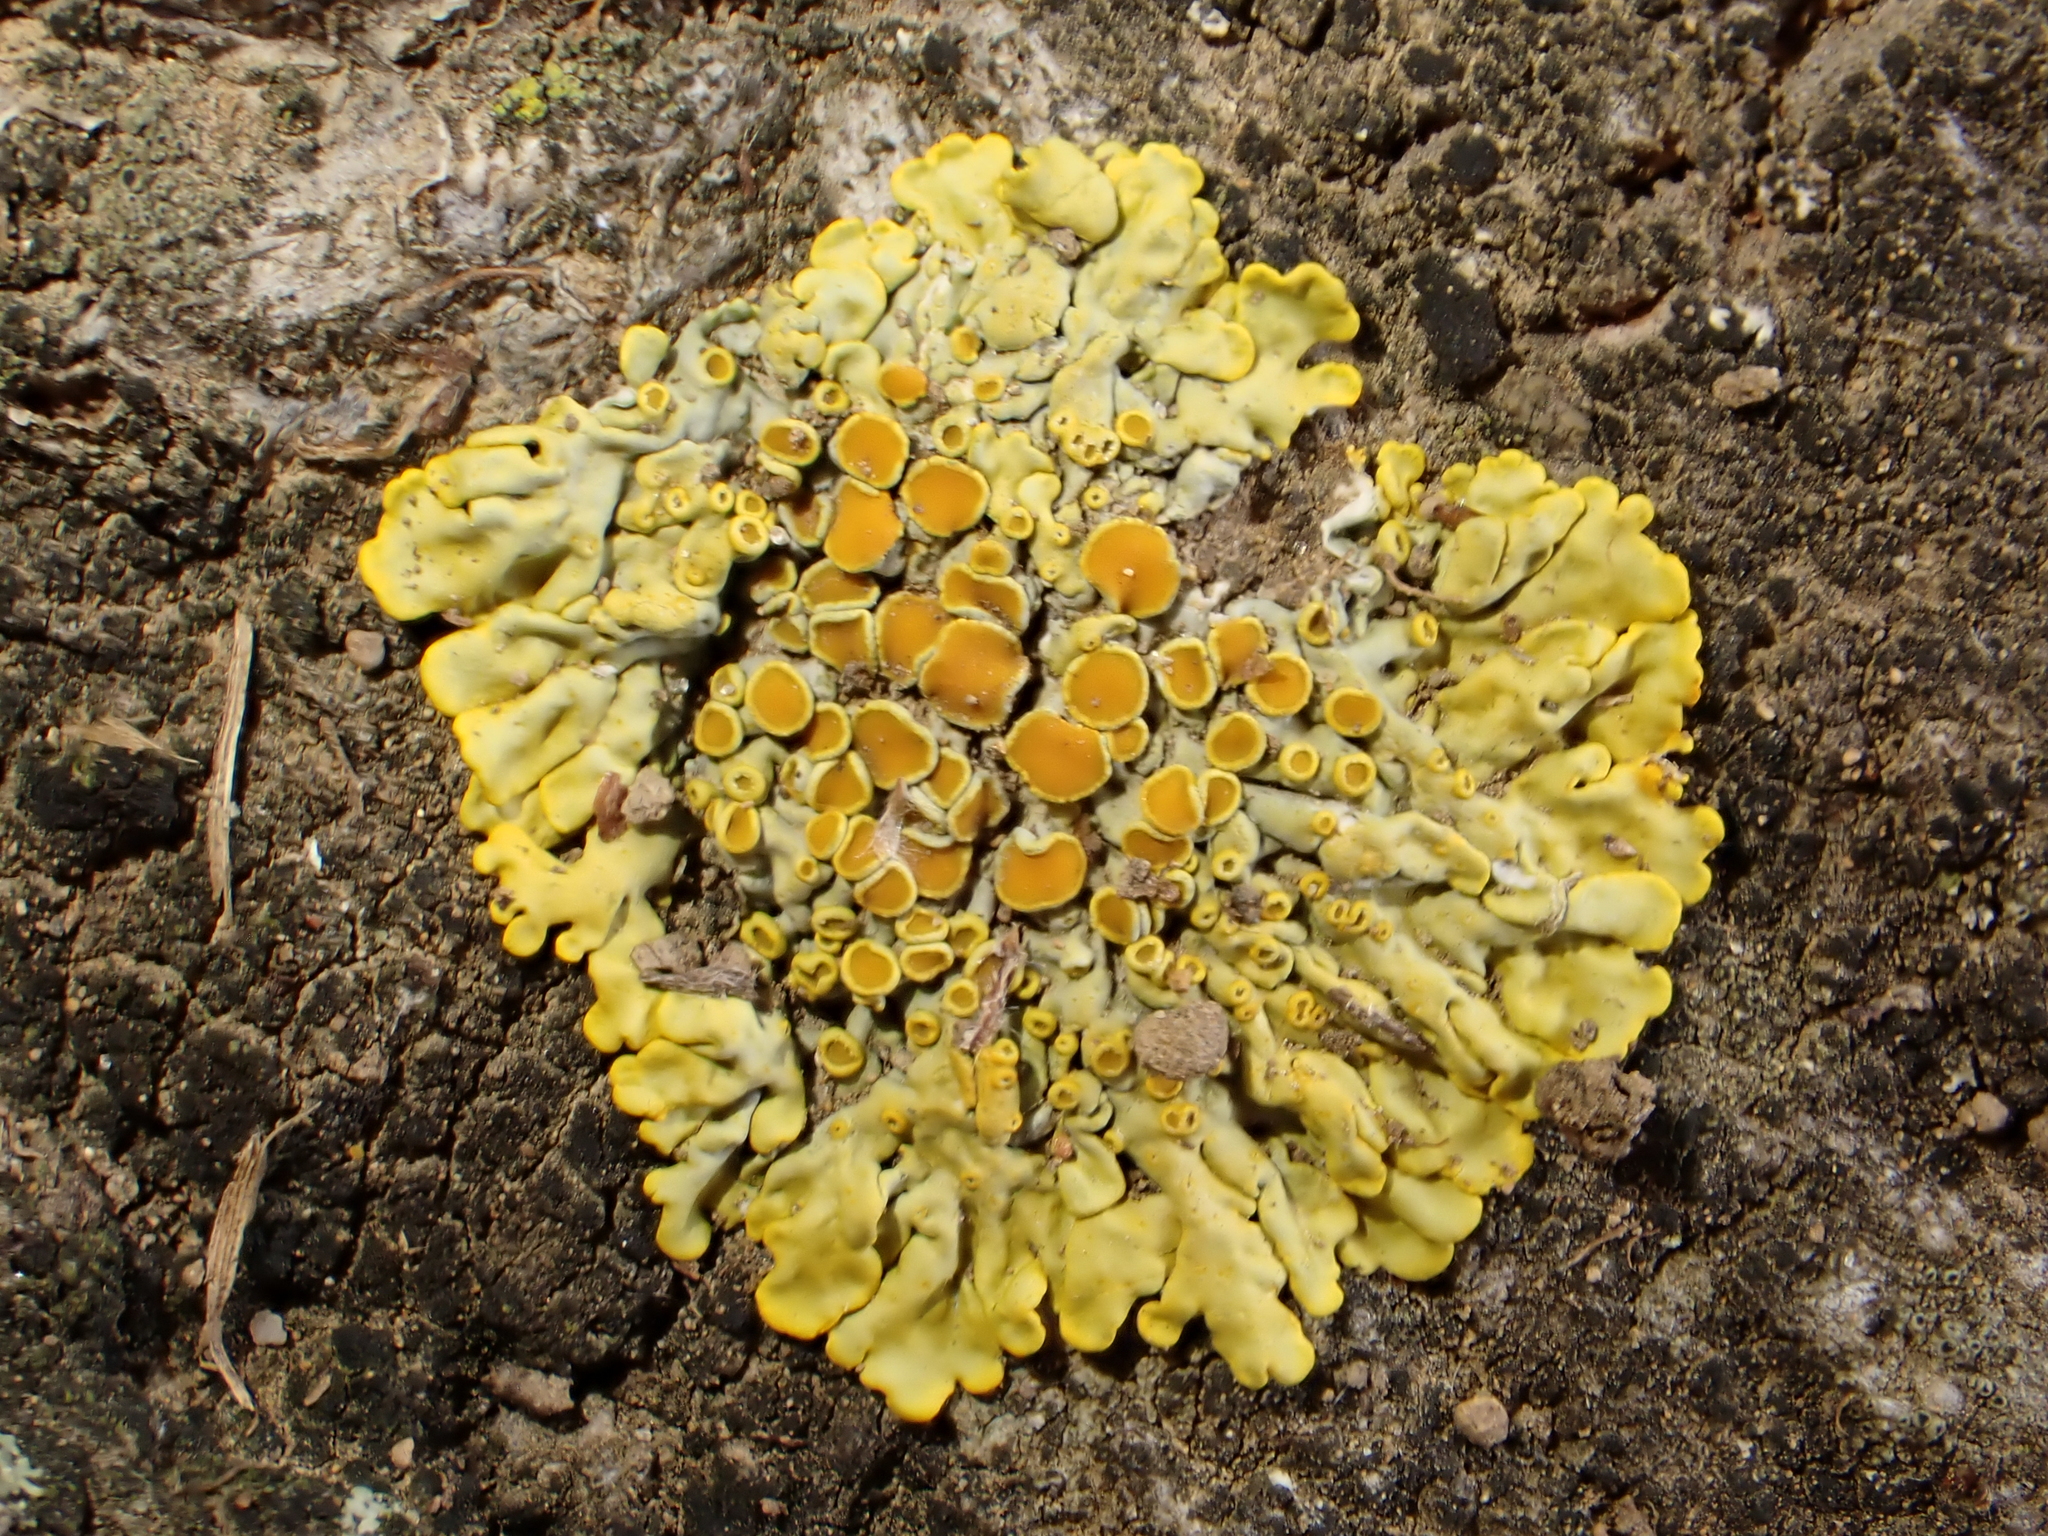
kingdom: Fungi
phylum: Ascomycota
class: Lecanoromycetes
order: Teloschistales
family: Teloschistaceae
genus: Xanthoria
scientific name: Xanthoria parietina
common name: Common orange lichen
